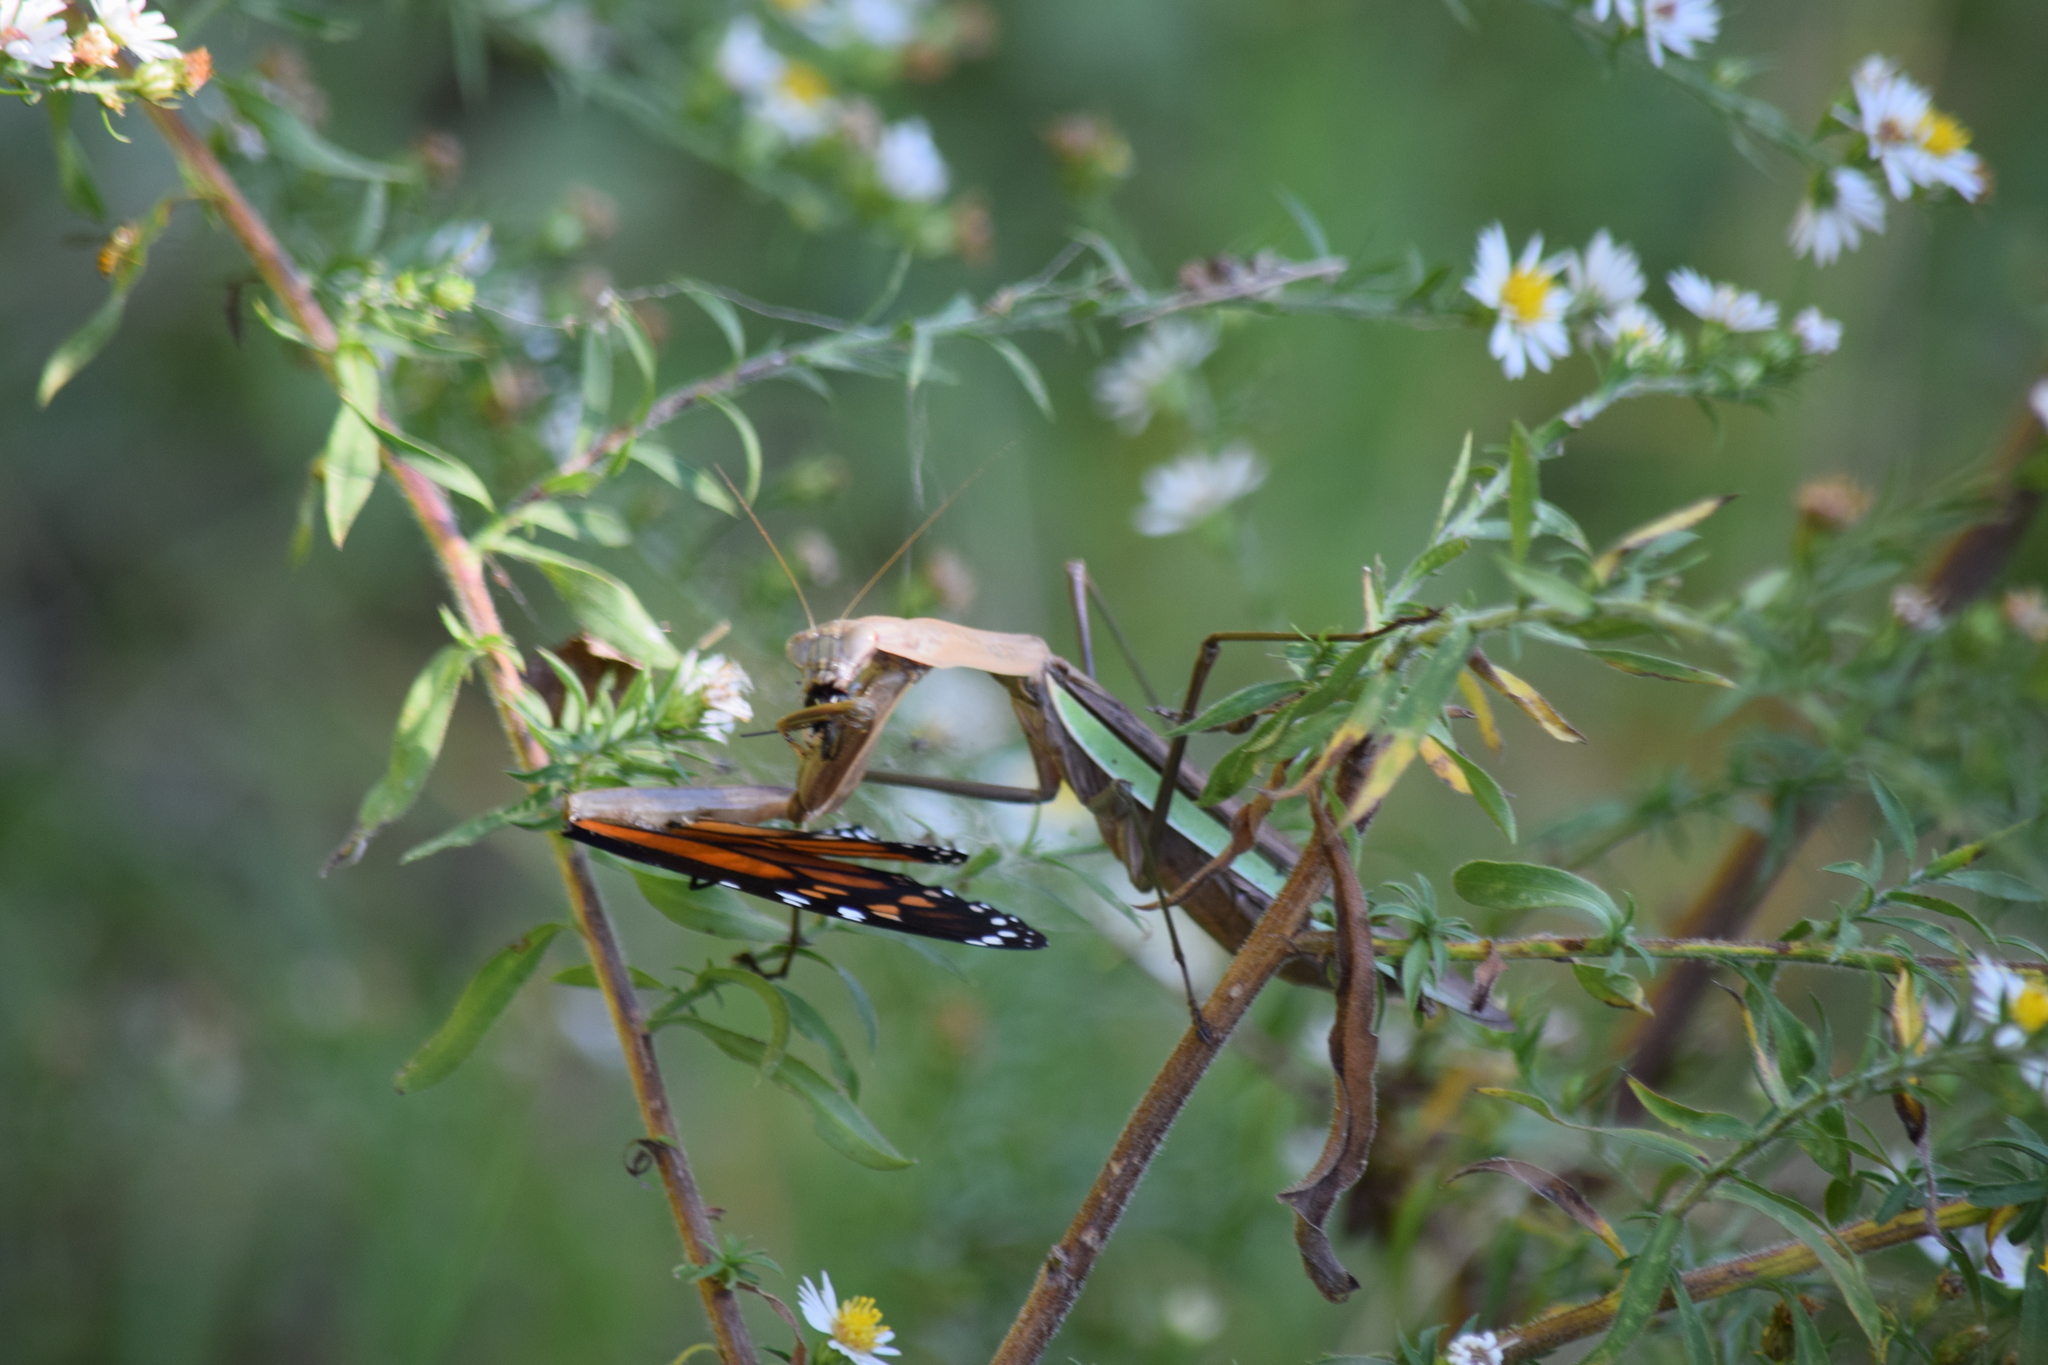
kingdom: Animalia
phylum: Arthropoda
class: Insecta
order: Lepidoptera
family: Nymphalidae
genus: Danaus
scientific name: Danaus plexippus
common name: Monarch
